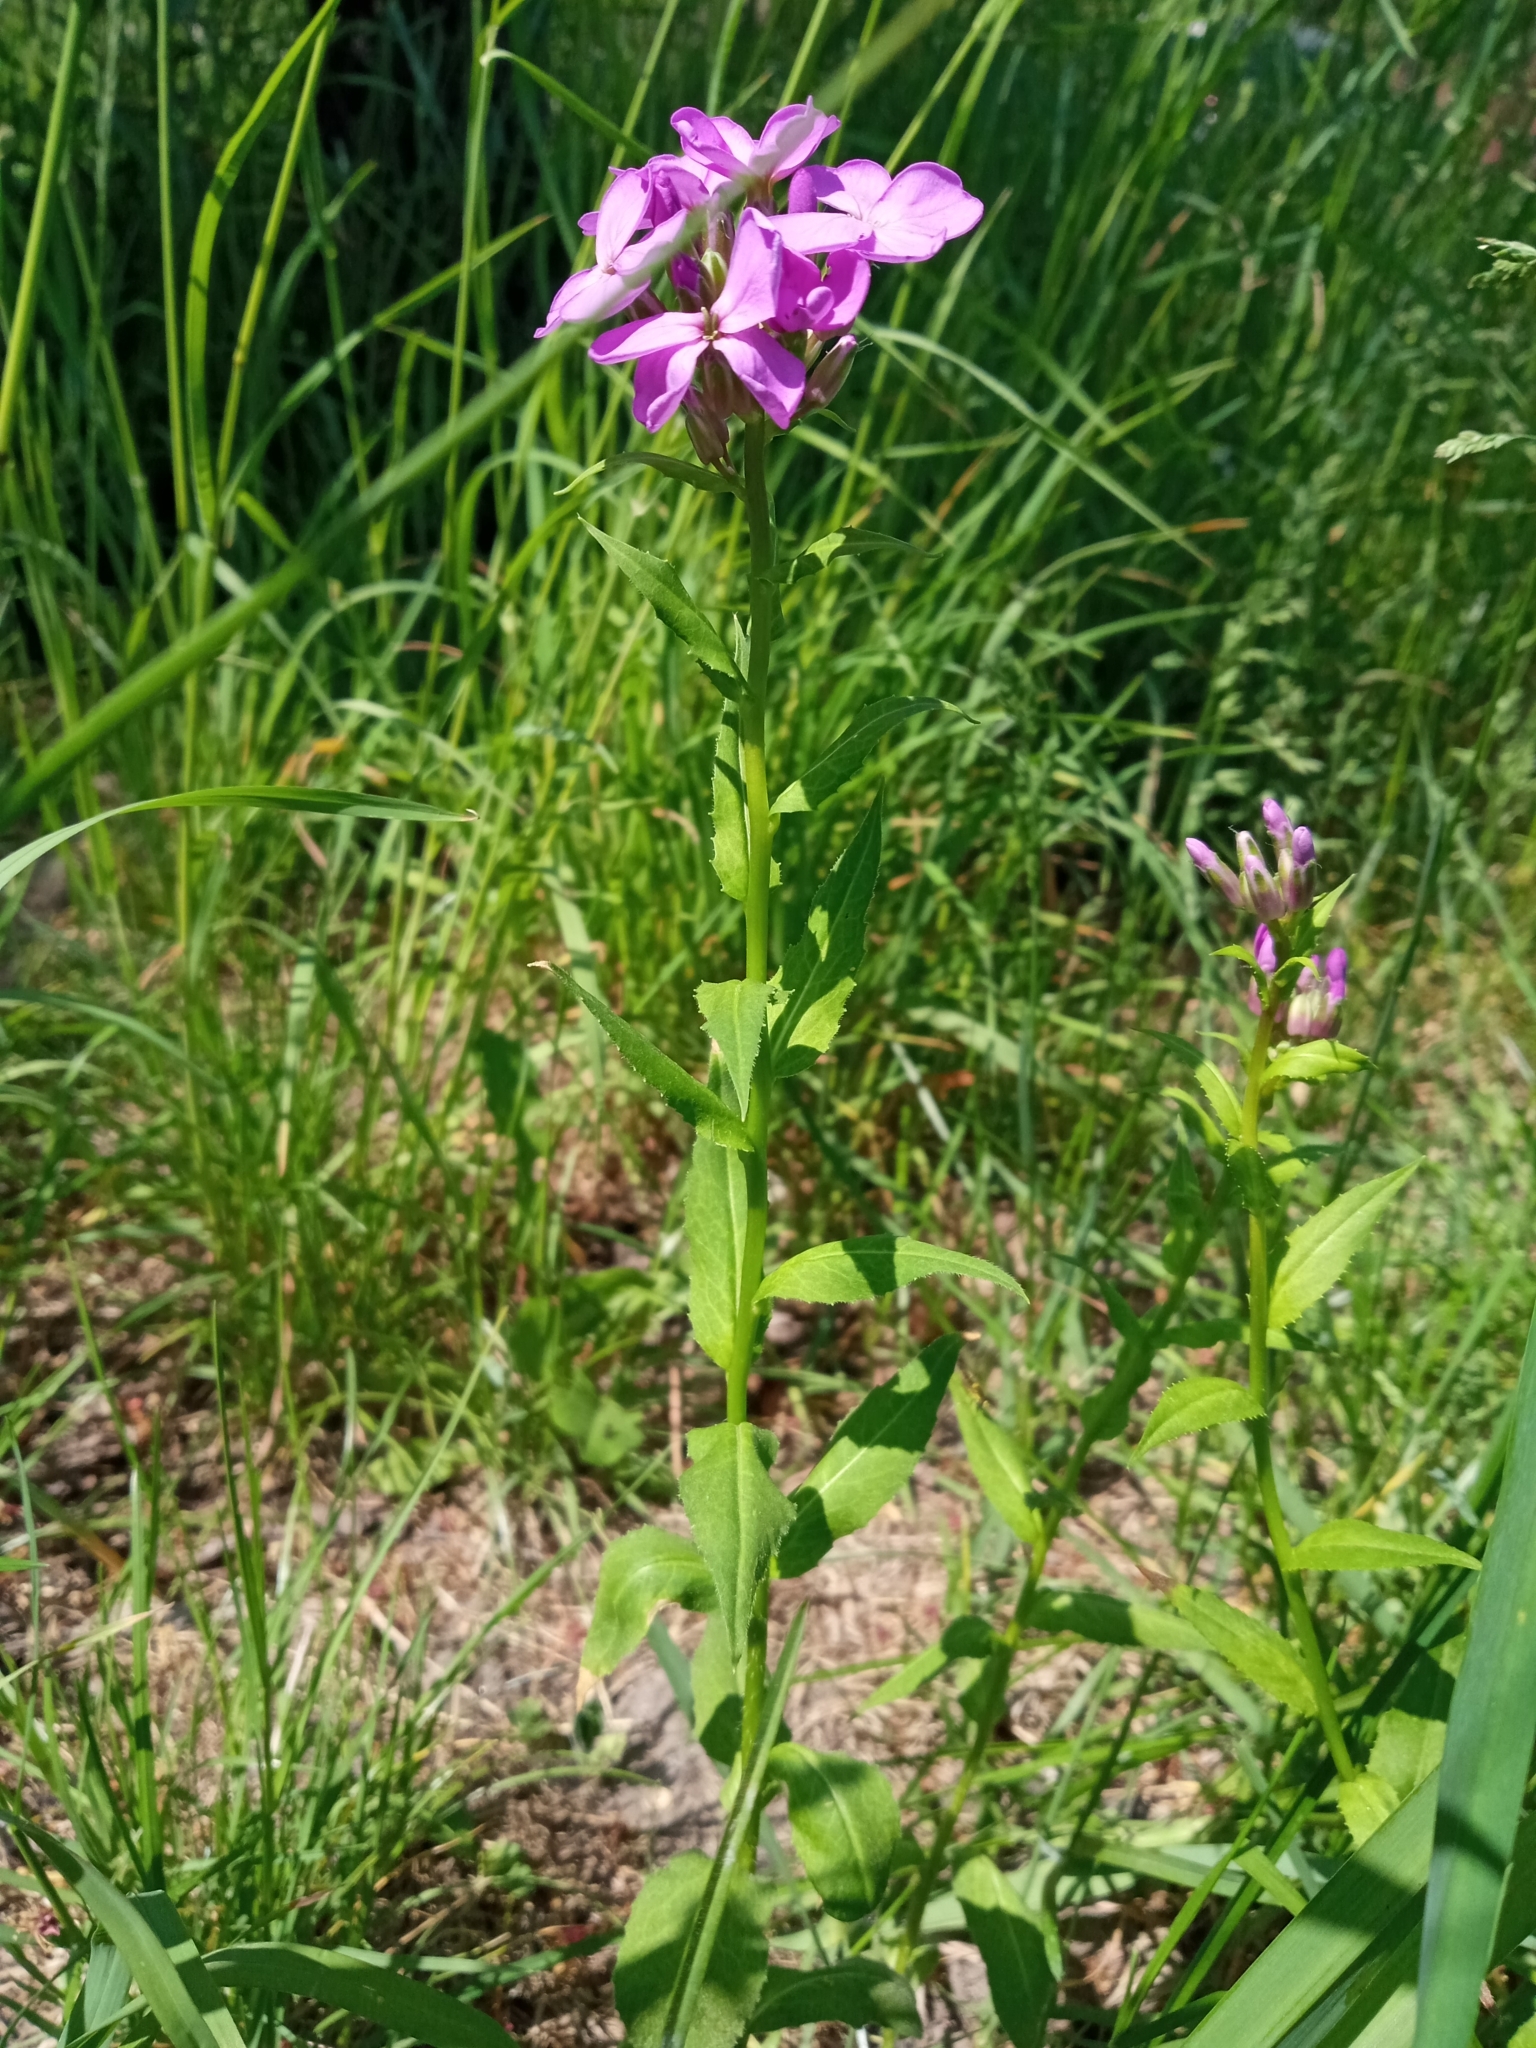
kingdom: Plantae
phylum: Tracheophyta
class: Magnoliopsida
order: Brassicales
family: Brassicaceae
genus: Hesperis
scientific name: Hesperis matronalis
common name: Dame's-violet
